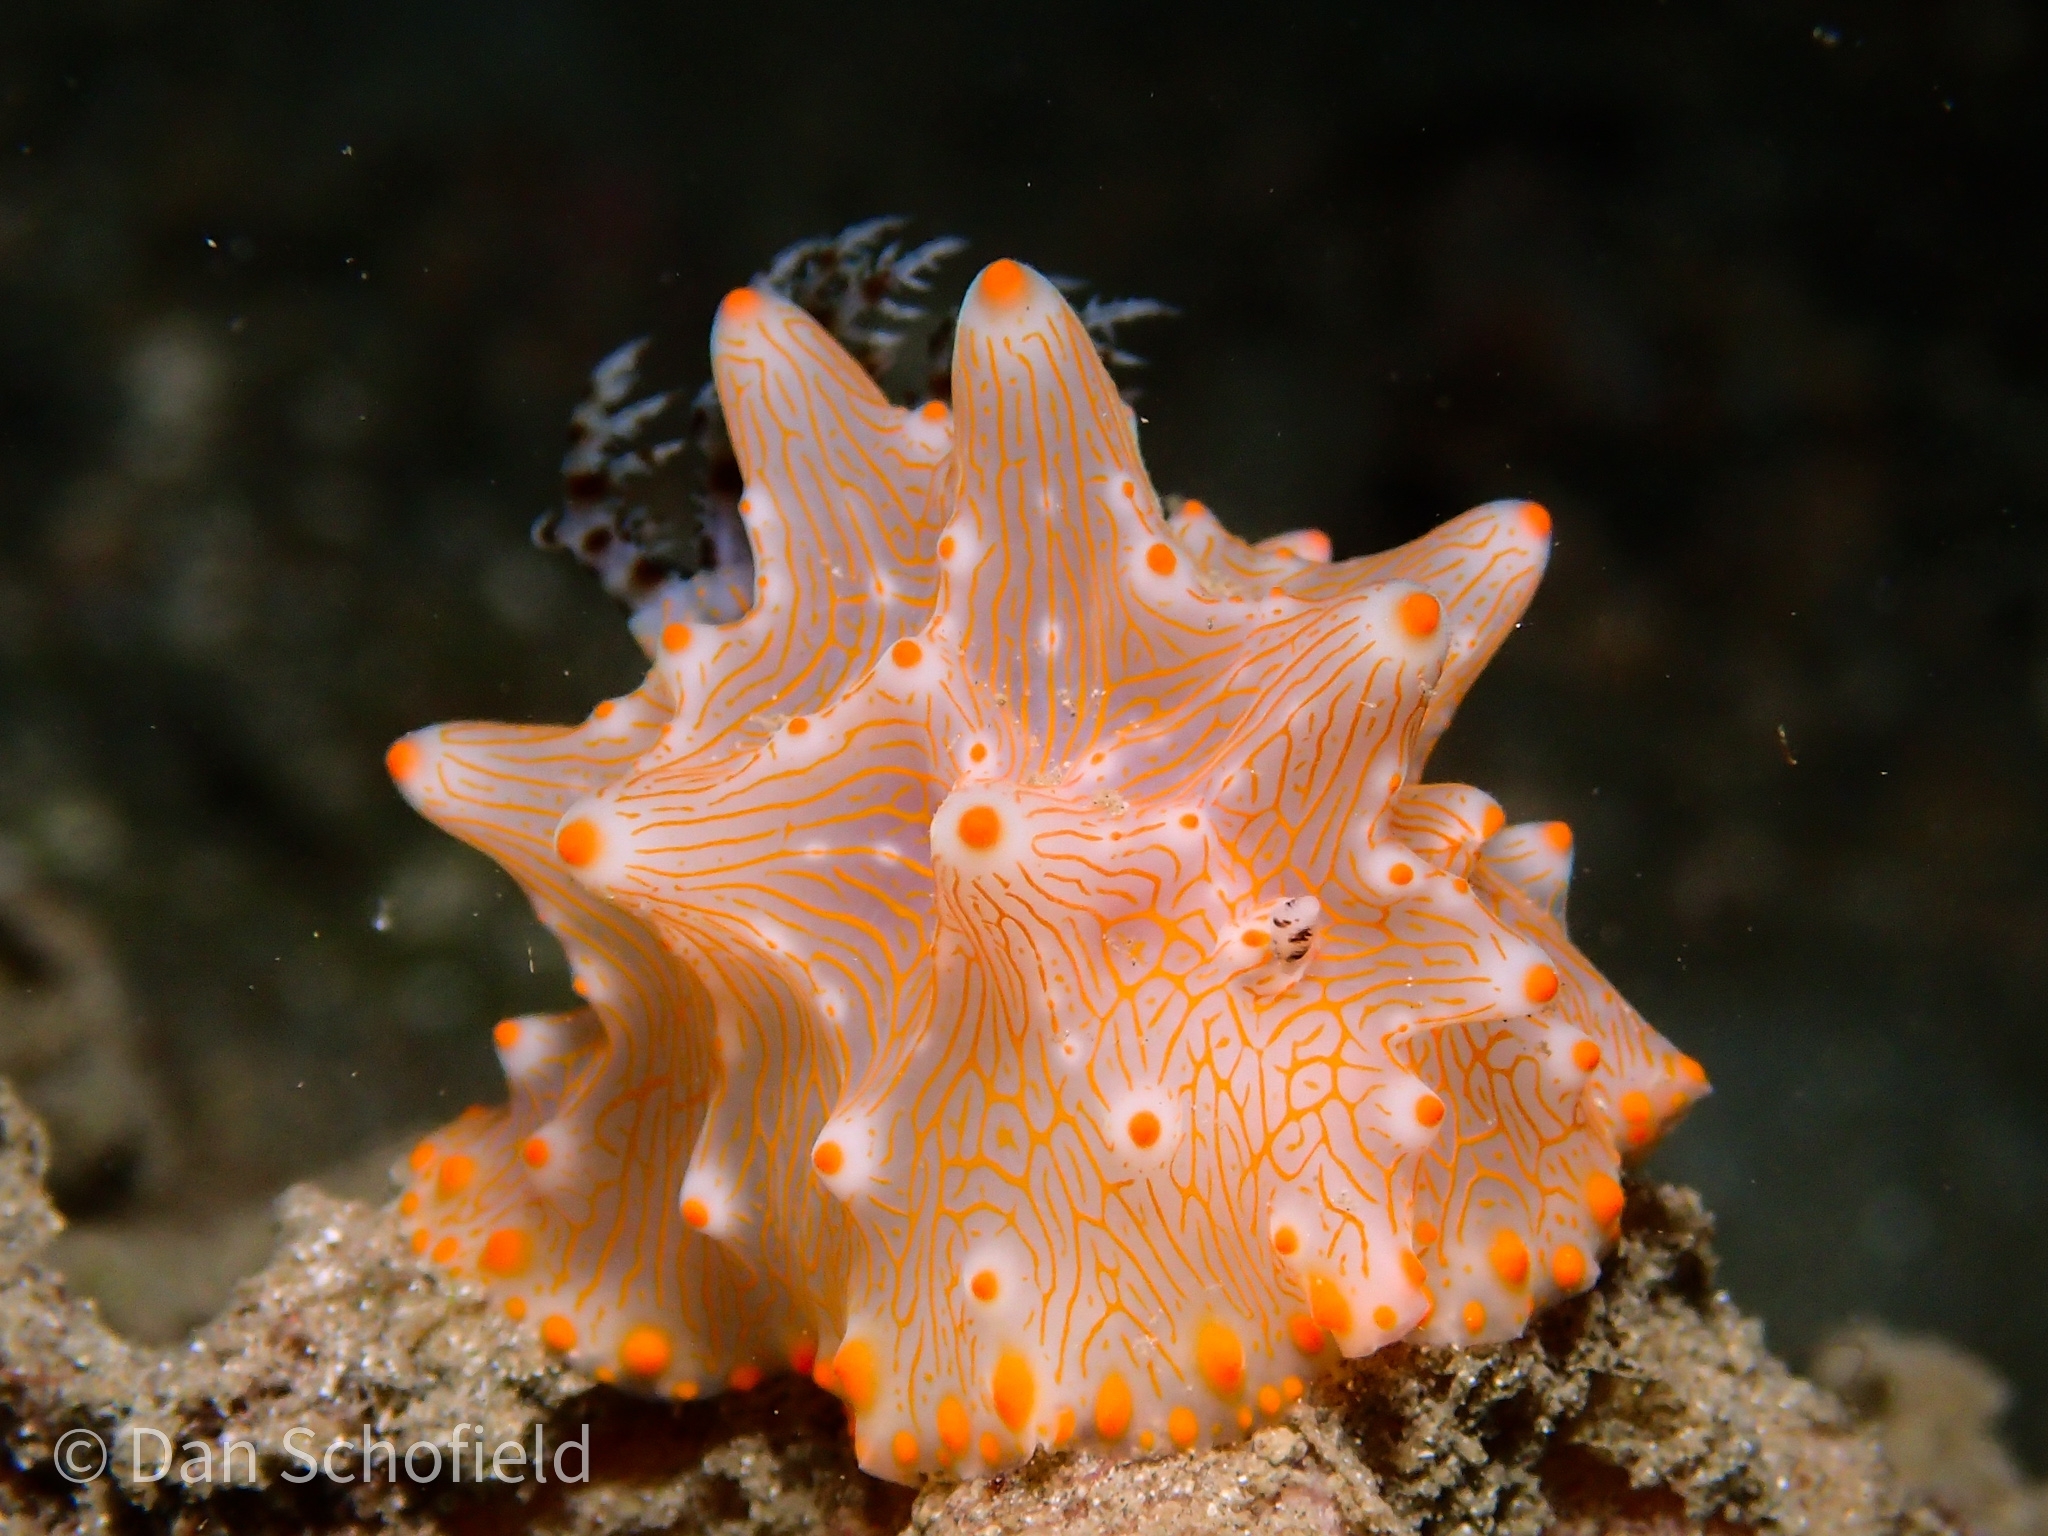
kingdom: Animalia
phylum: Mollusca
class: Gastropoda
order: Nudibranchia
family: Discodorididae
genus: Halgerda
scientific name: Halgerda batangas
